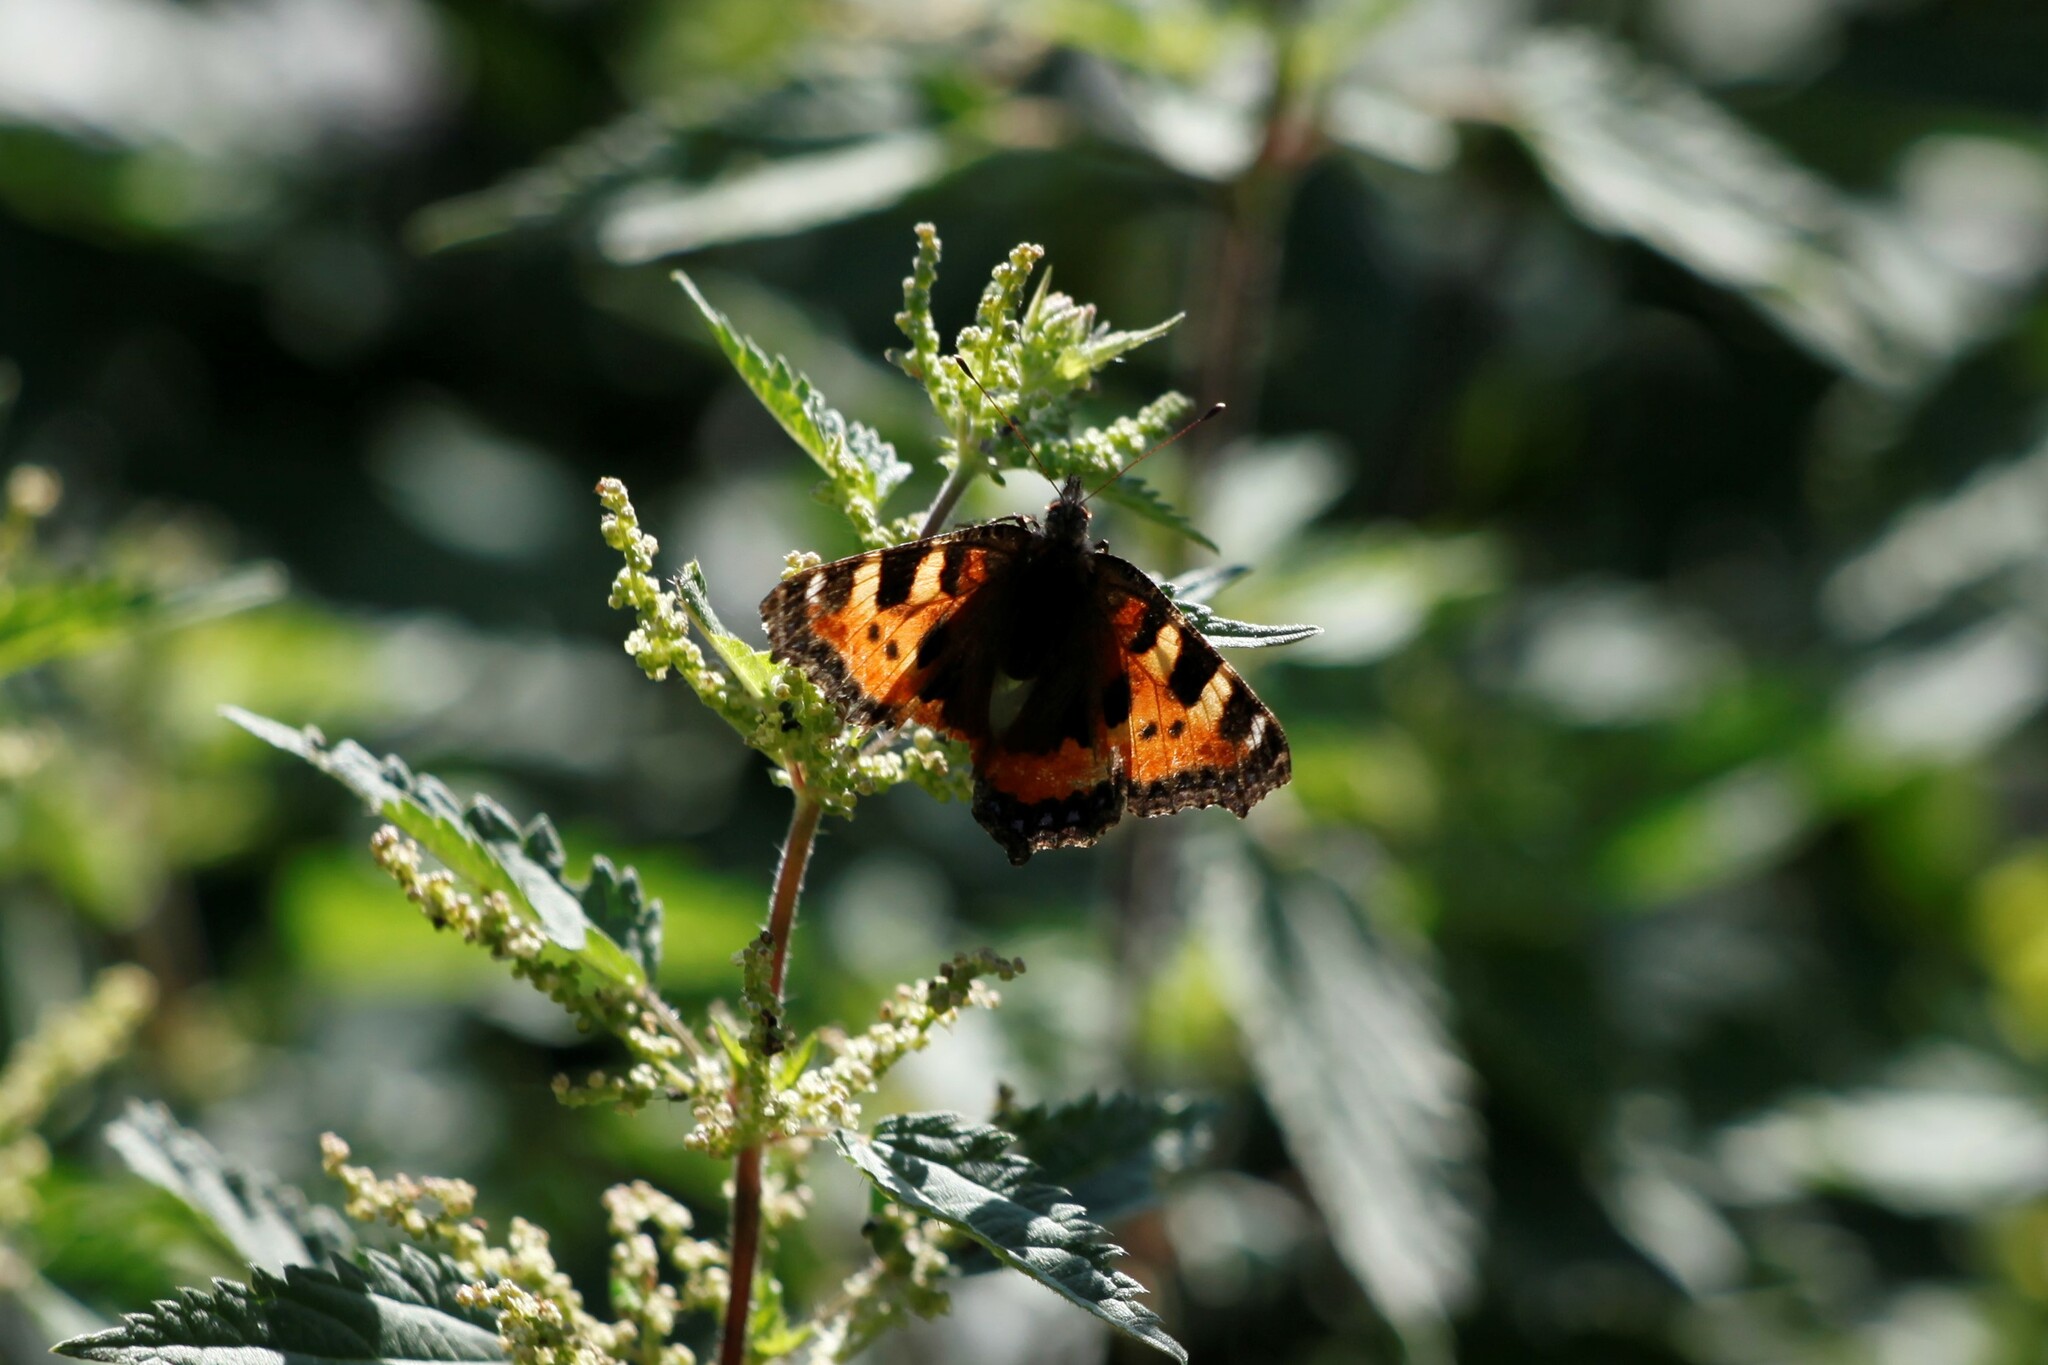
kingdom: Animalia
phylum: Arthropoda
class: Insecta
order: Lepidoptera
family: Nymphalidae
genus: Aglais
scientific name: Aglais urticae
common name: Small tortoiseshell
